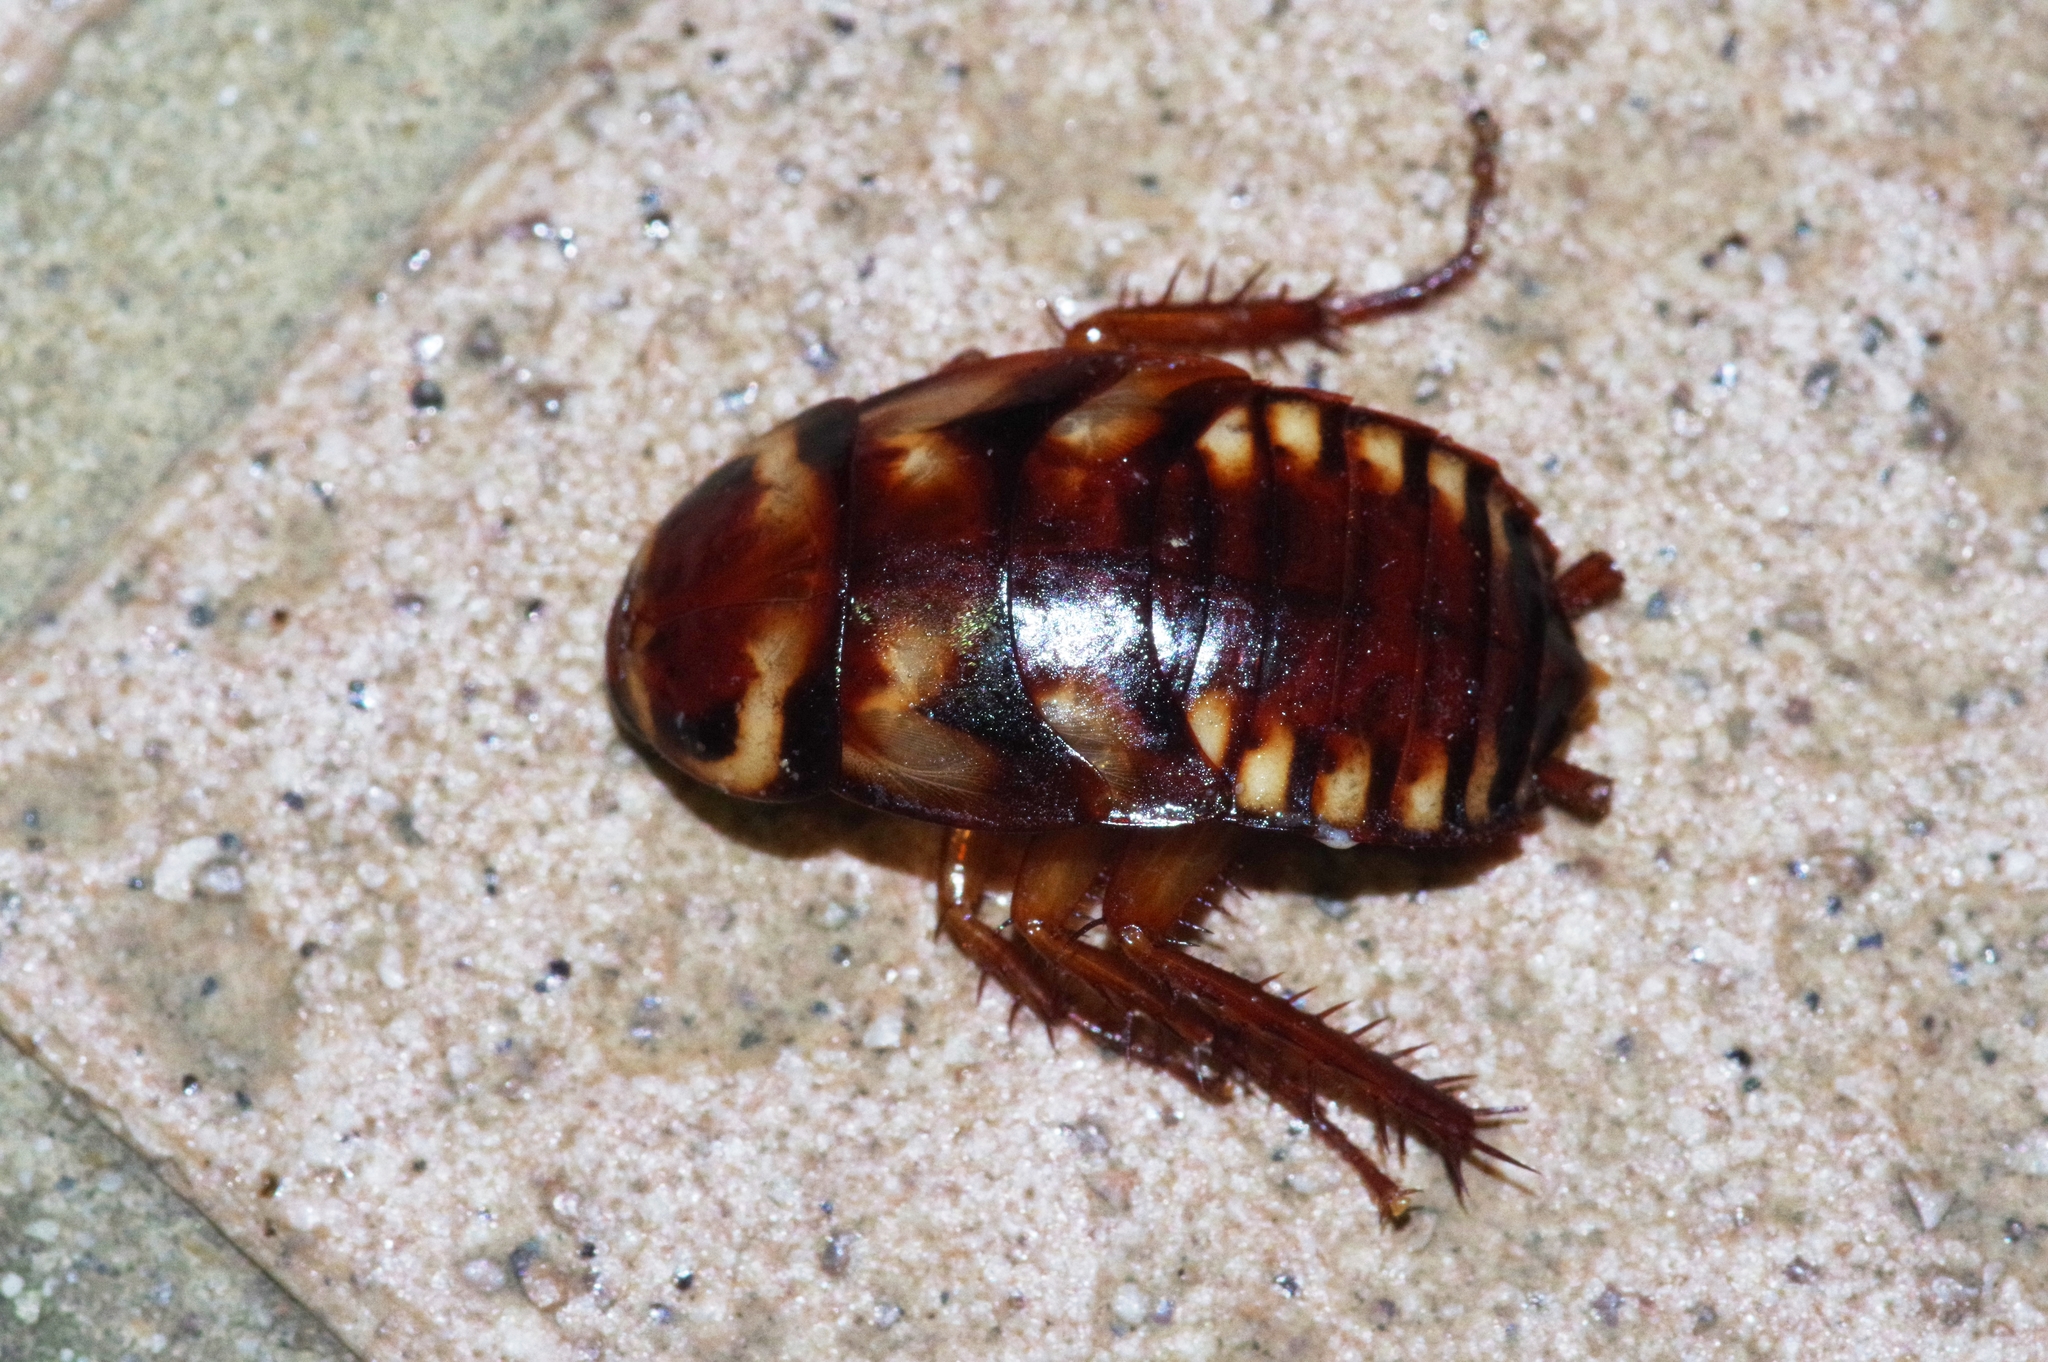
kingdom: Animalia
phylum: Arthropoda
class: Insecta
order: Blattodea
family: Blattidae
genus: Periplaneta
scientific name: Periplaneta australasiae
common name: Australian cockroach
